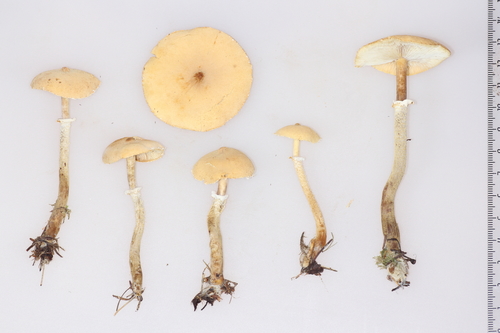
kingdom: Fungi
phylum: Basidiomycota
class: Agaricomycetes
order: Agaricales
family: Tricholomataceae
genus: Cystoderma
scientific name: Cystoderma carcharias
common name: Pearly powdercap
